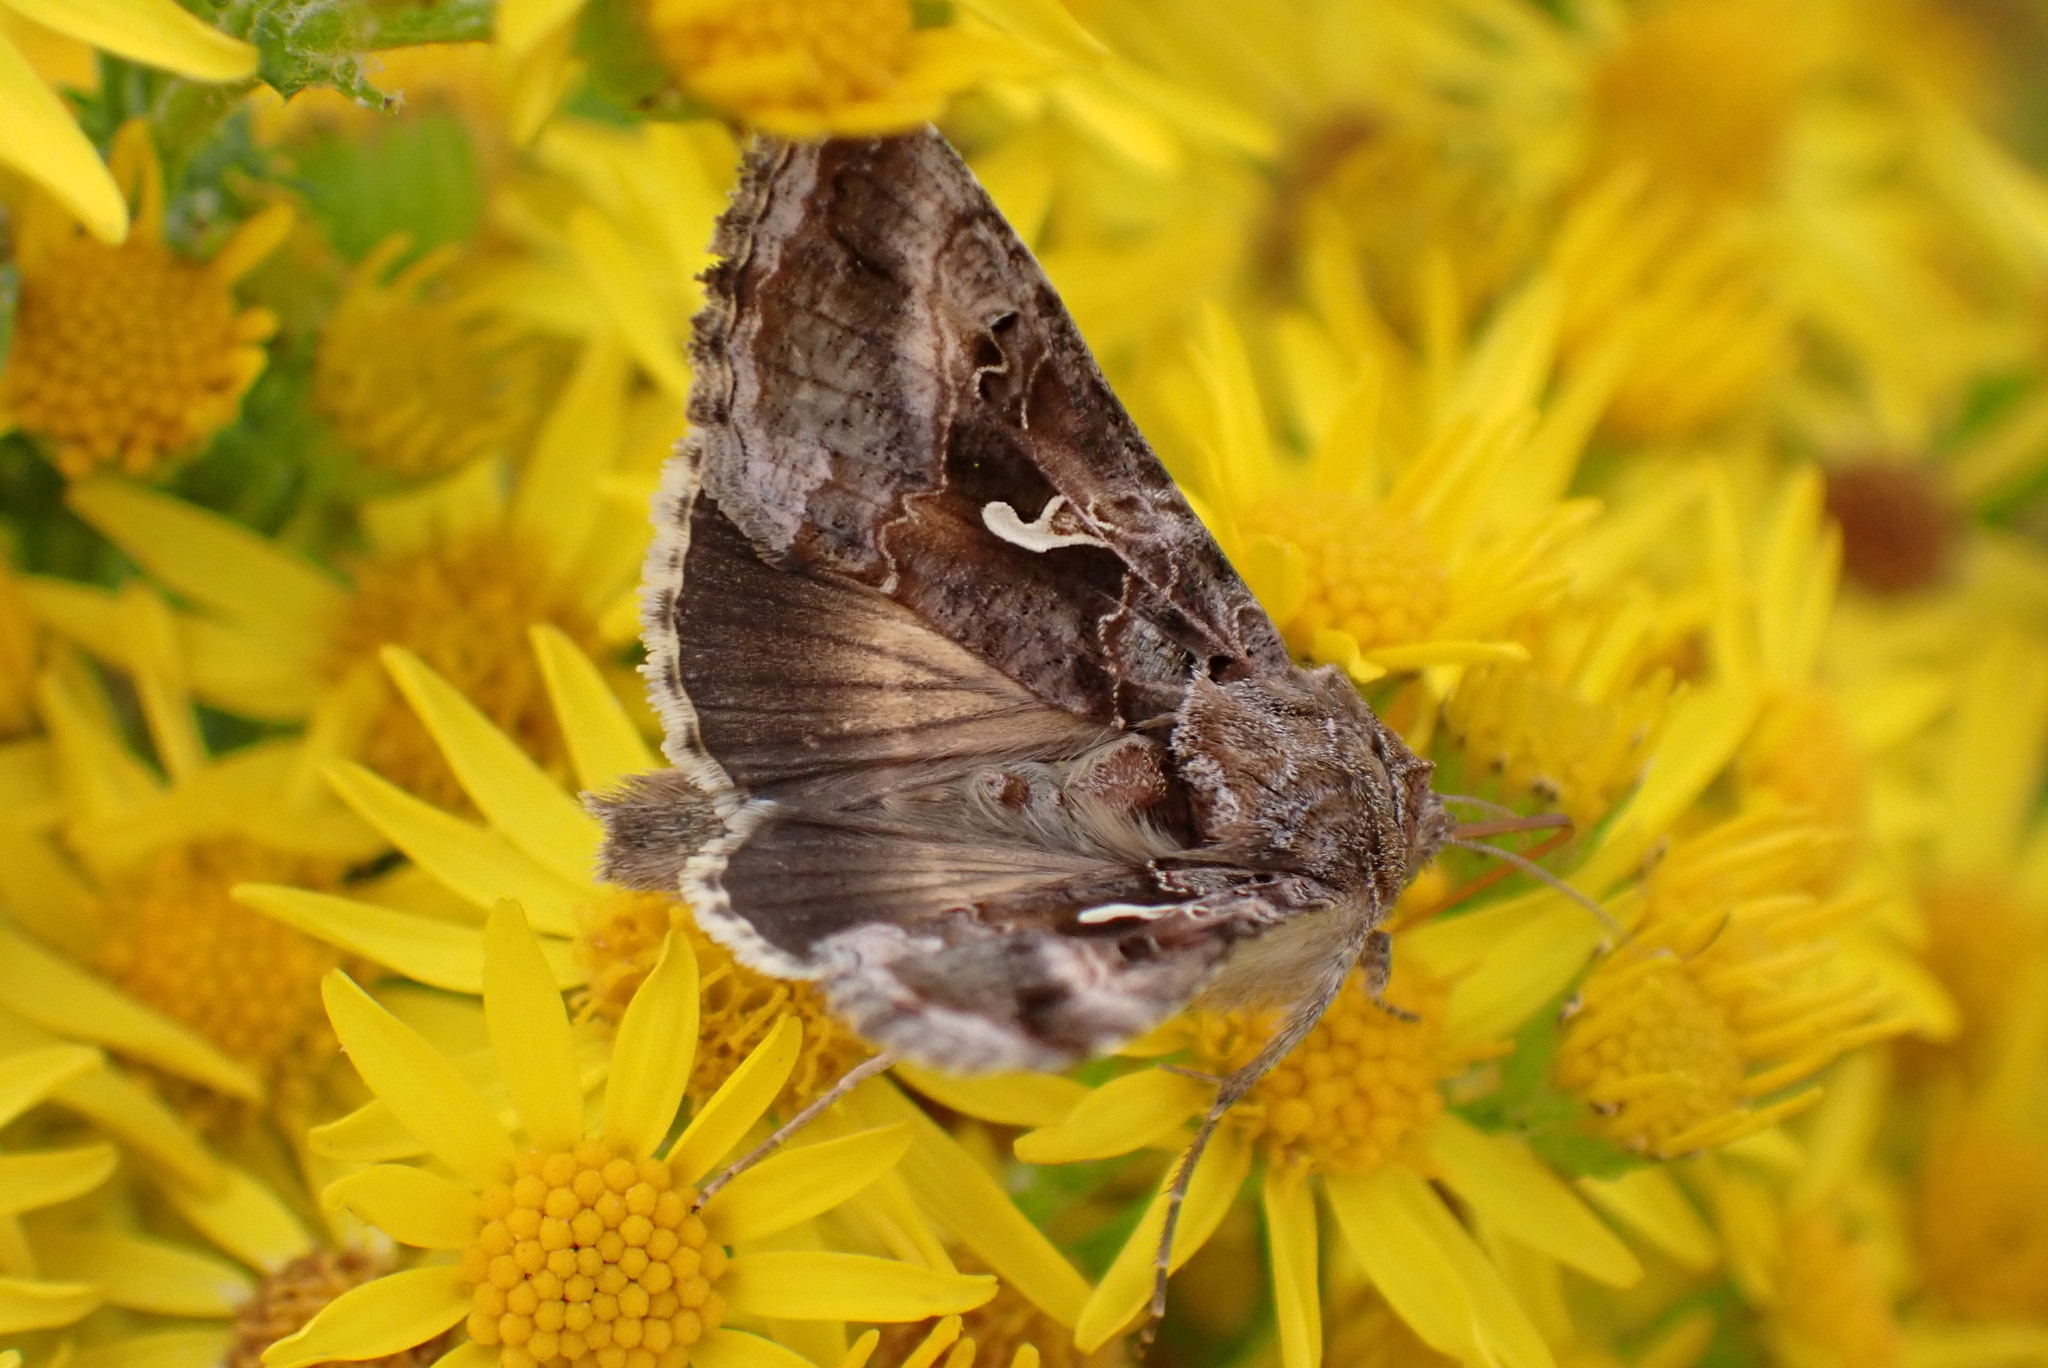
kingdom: Animalia
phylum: Arthropoda
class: Insecta
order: Lepidoptera
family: Noctuidae
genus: Autographa
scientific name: Autographa gamma
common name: Silver y
